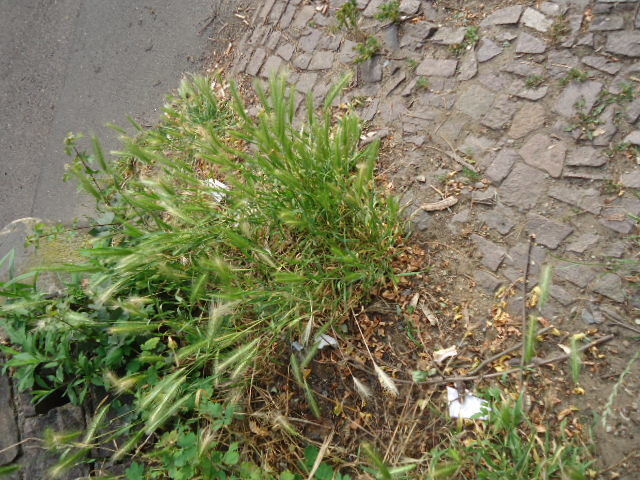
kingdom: Plantae
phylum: Tracheophyta
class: Liliopsida
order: Poales
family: Poaceae
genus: Hordeum
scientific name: Hordeum murinum
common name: Wall barley
